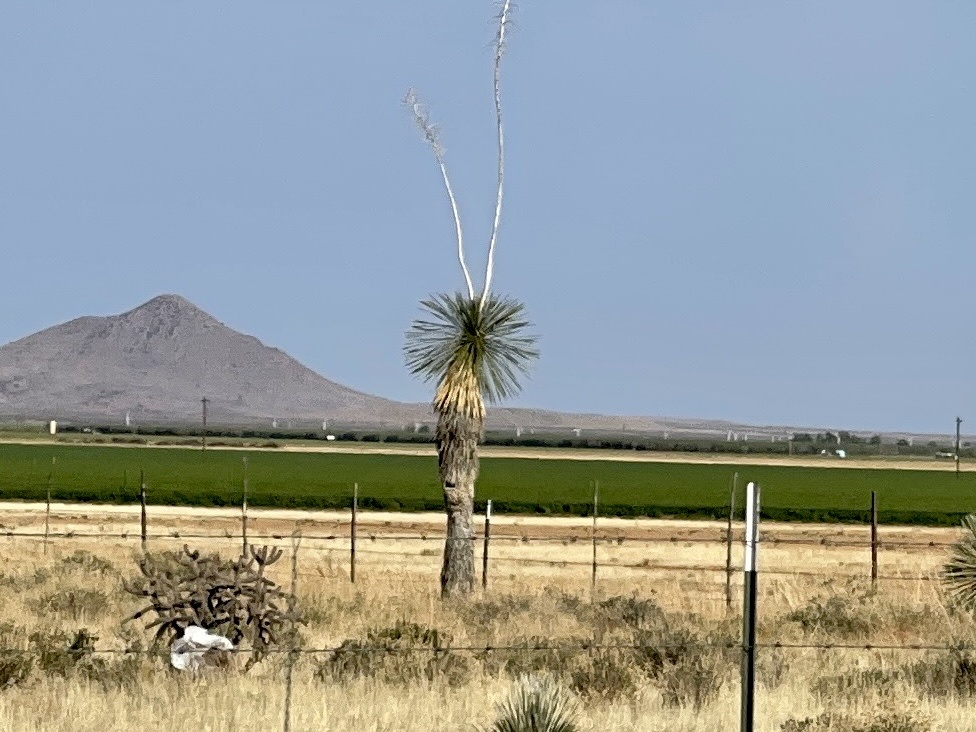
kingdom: Plantae
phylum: Tracheophyta
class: Liliopsida
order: Asparagales
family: Asparagaceae
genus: Yucca
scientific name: Yucca elata
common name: Palmella
